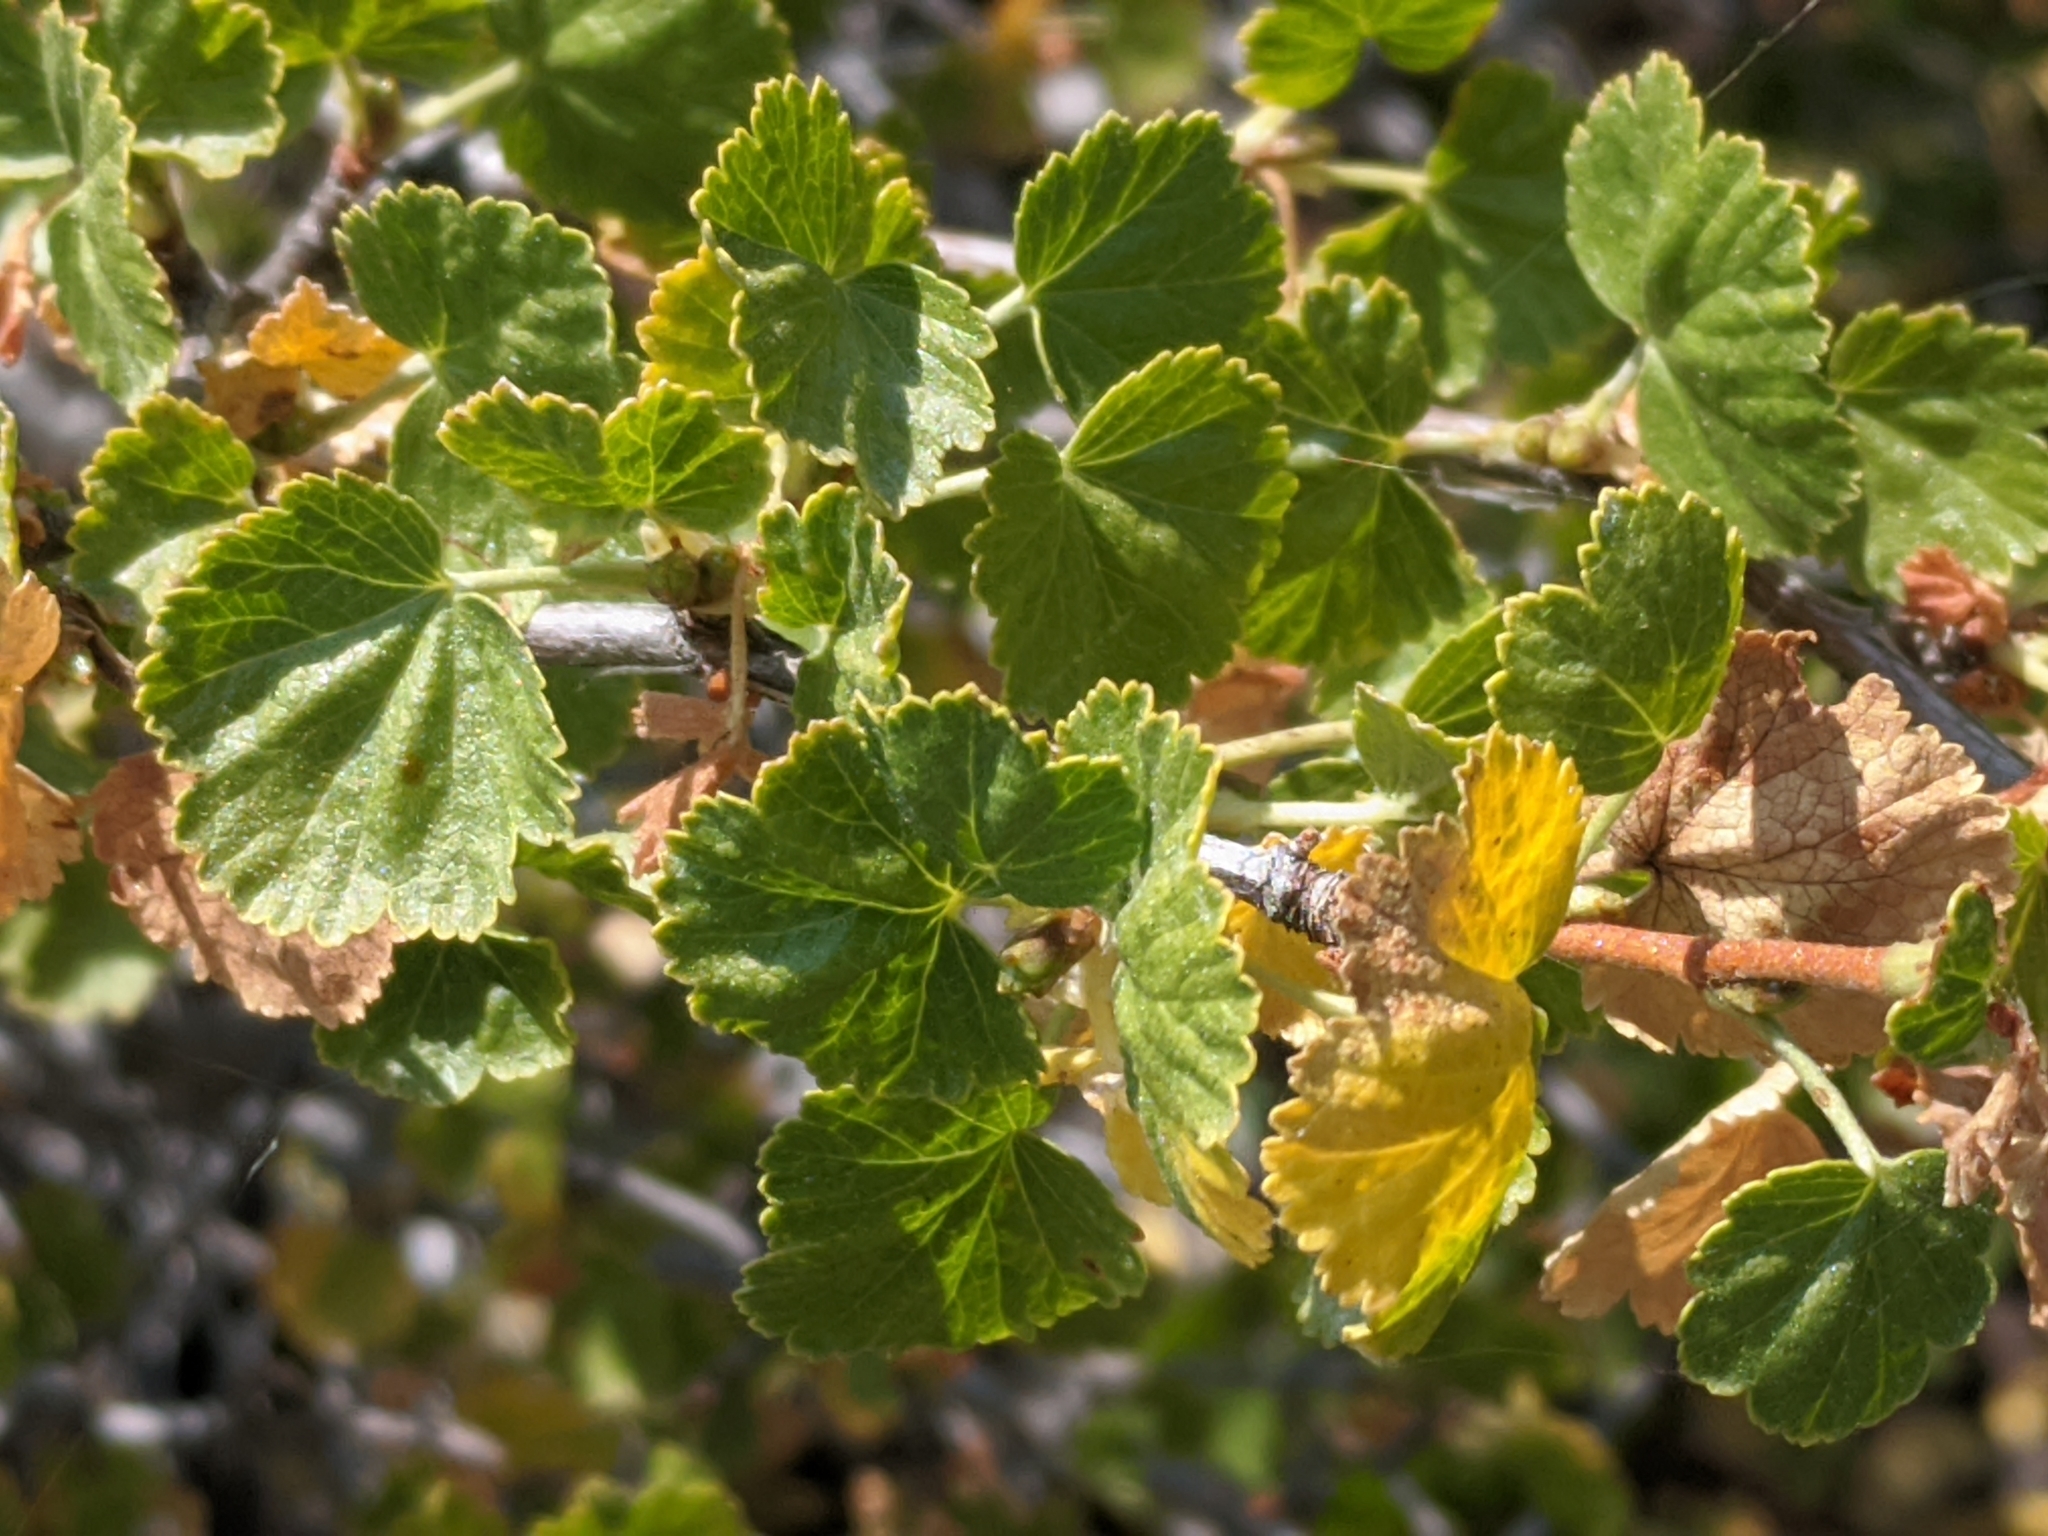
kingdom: Plantae
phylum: Tracheophyta
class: Magnoliopsida
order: Saxifragales
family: Grossulariaceae
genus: Ribes
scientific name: Ribes cereum
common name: Wax currant
